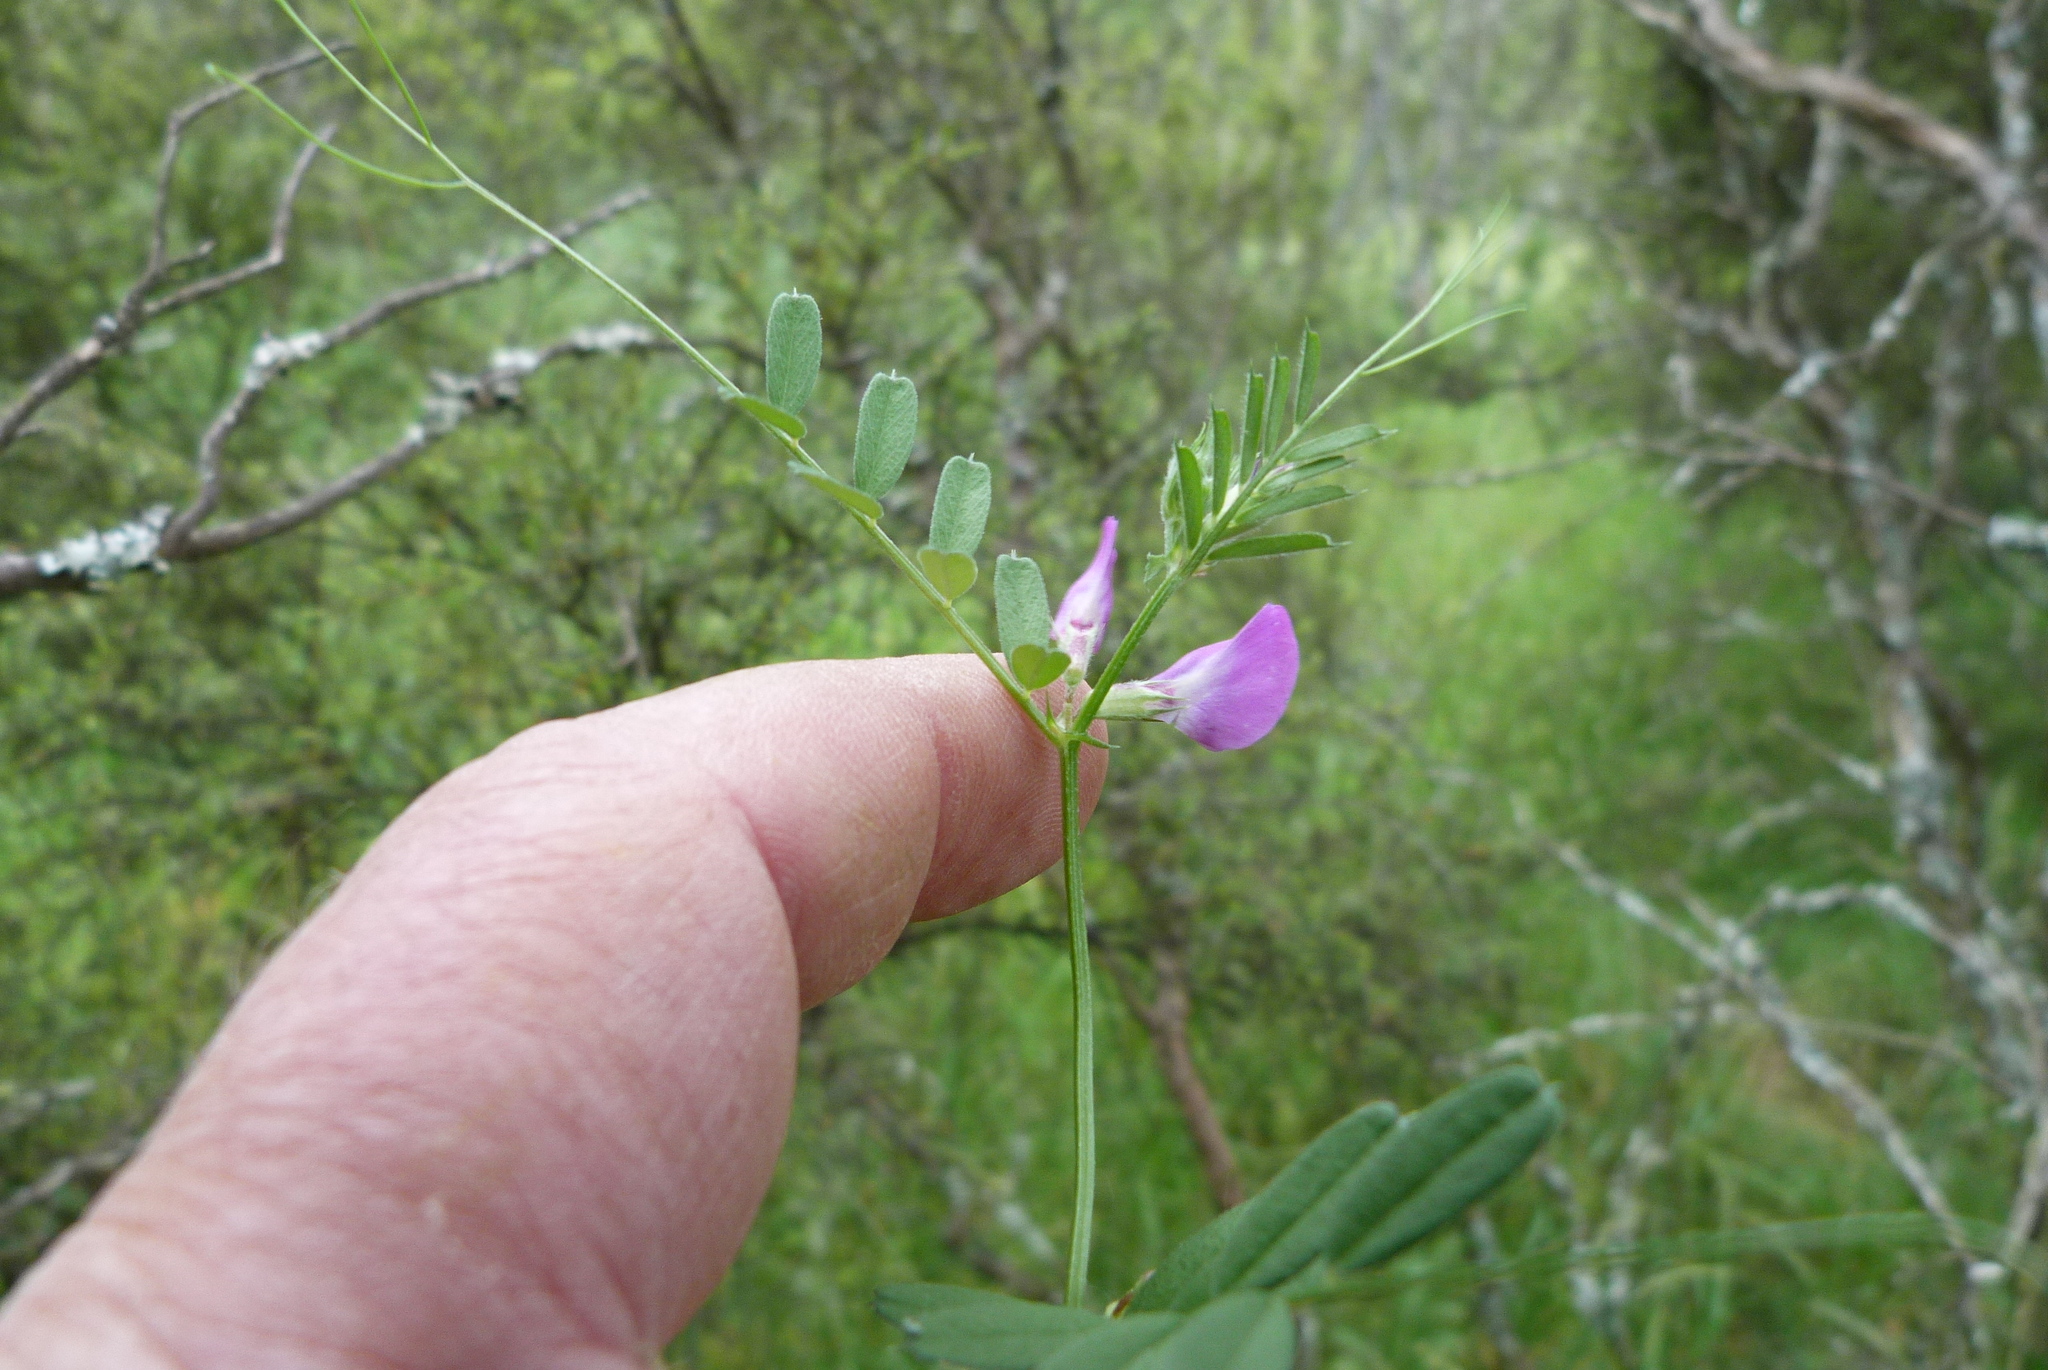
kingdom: Plantae
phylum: Tracheophyta
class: Magnoliopsida
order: Fabales
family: Fabaceae
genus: Vicia
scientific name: Vicia sativa
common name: Garden vetch
